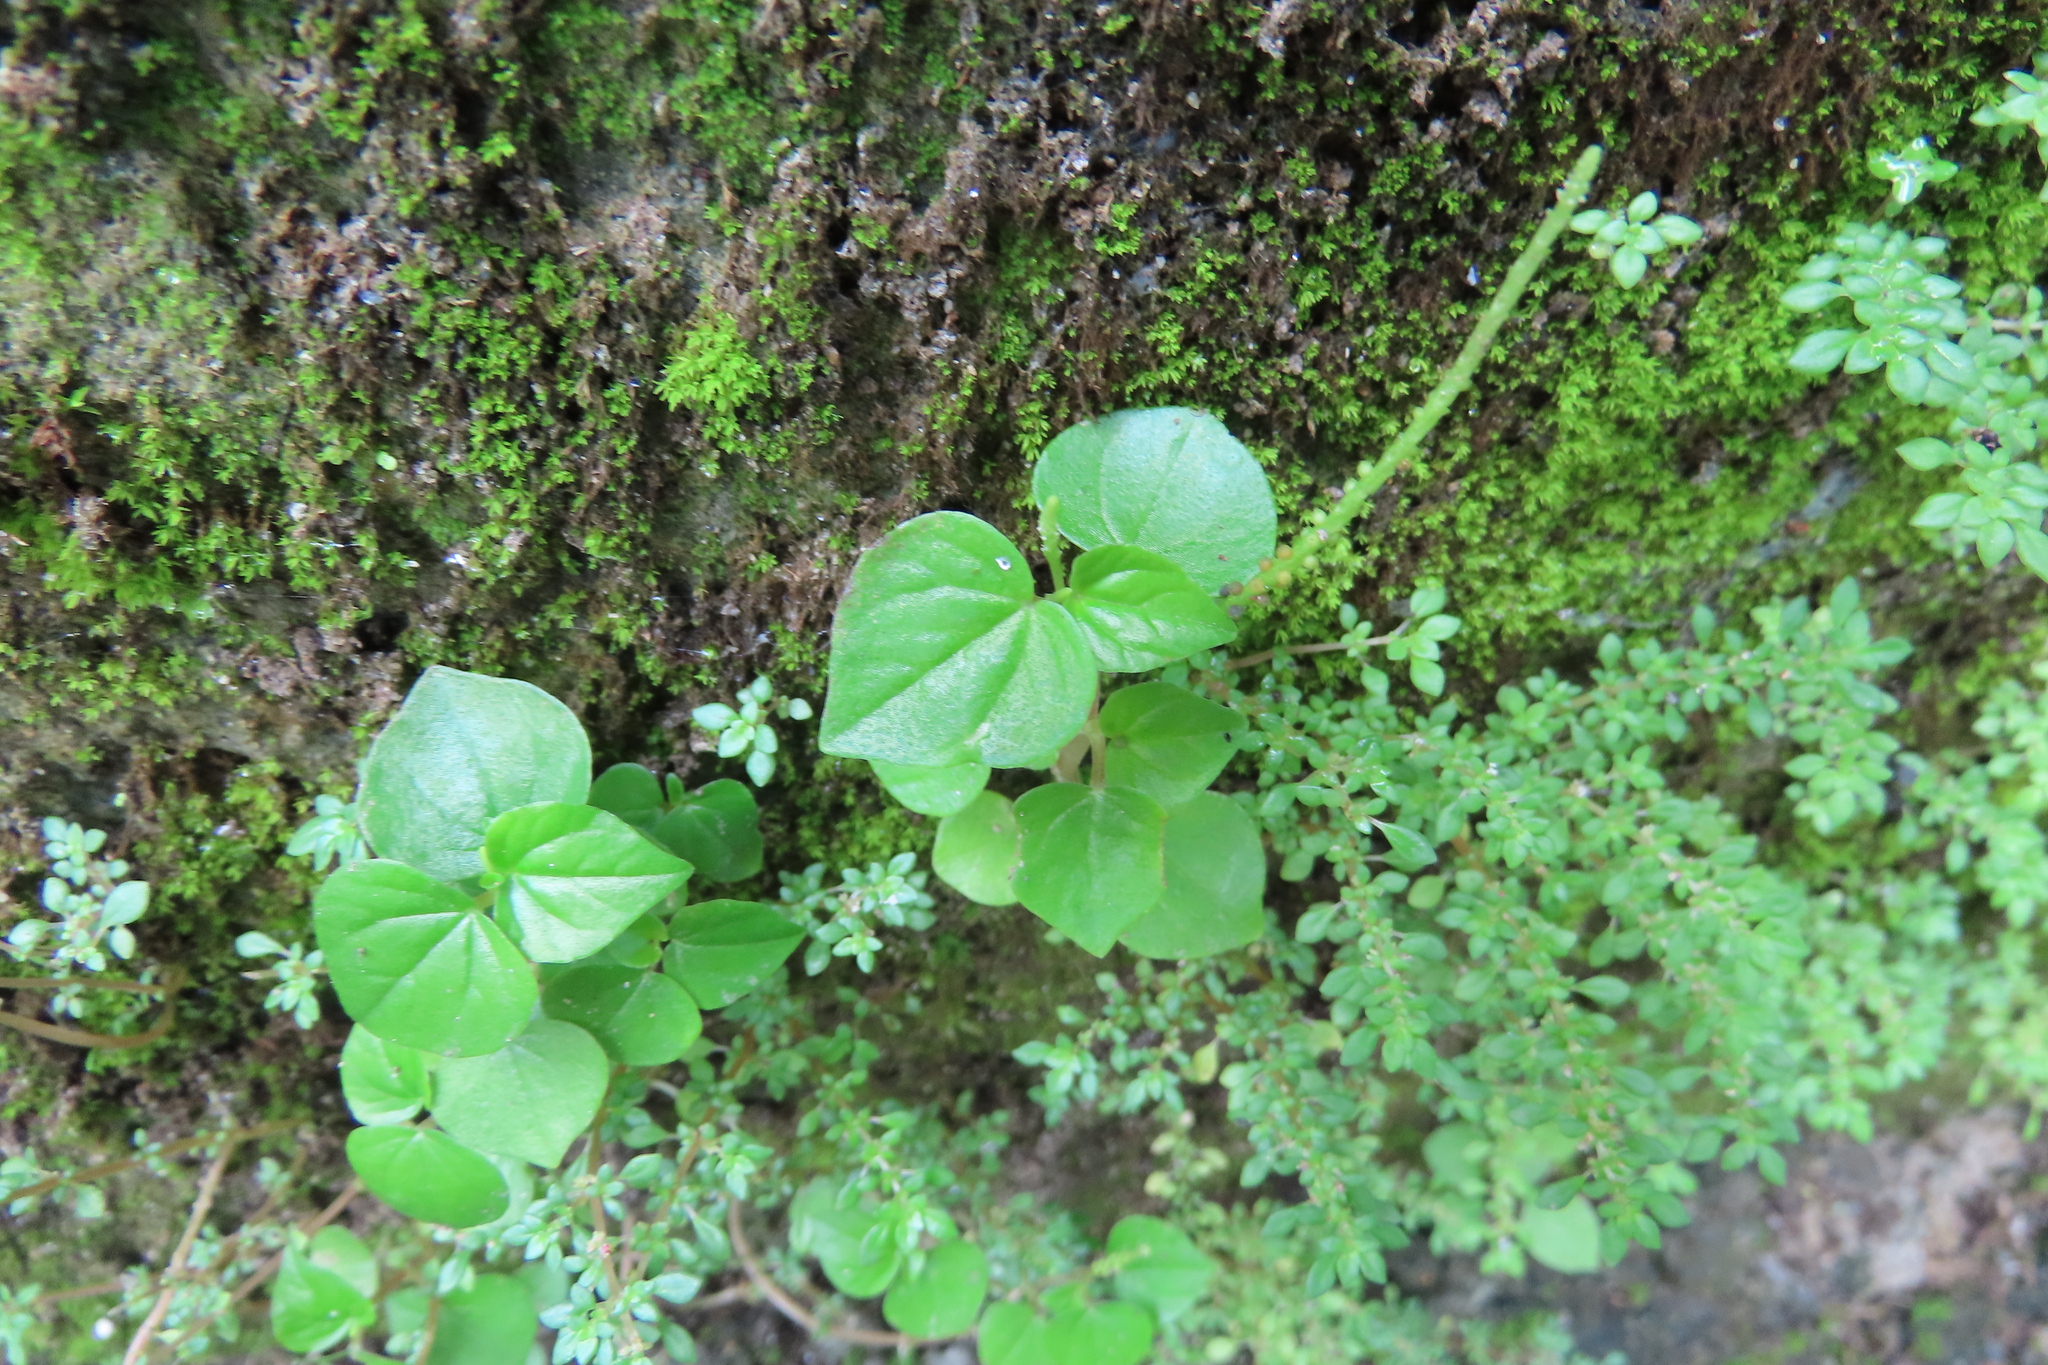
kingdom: Plantae
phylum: Tracheophyta
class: Magnoliopsida
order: Piperales
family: Piperaceae
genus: Peperomia
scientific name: Peperomia pellucida
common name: Man to man
